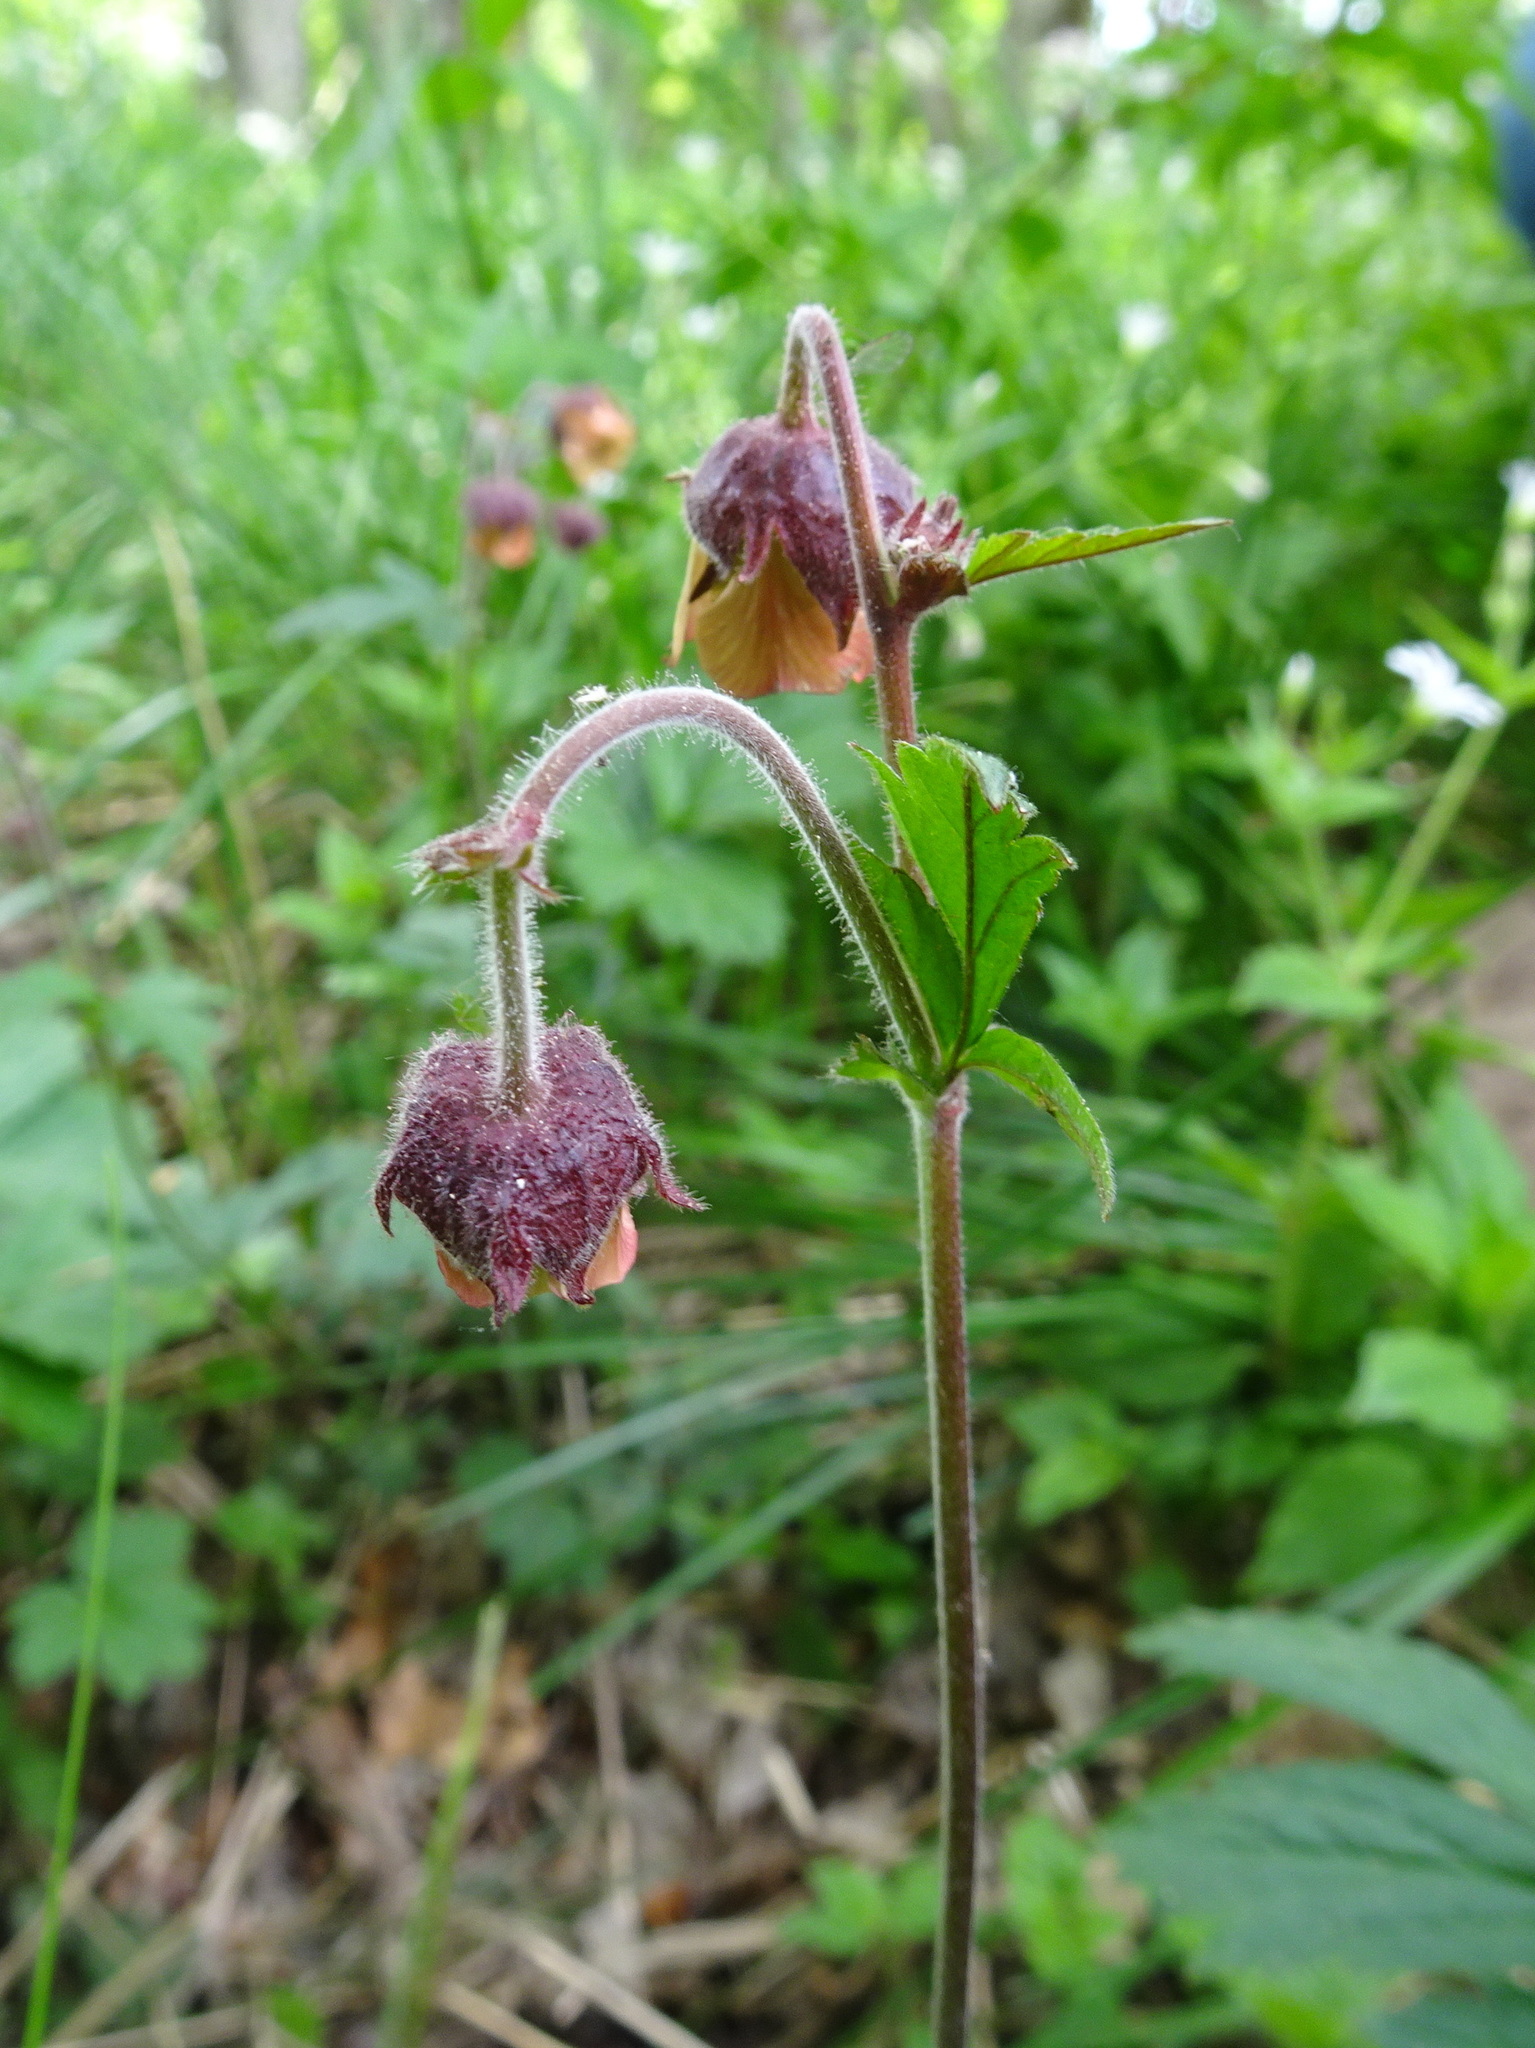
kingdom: Plantae
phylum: Tracheophyta
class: Magnoliopsida
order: Rosales
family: Rosaceae
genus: Geum
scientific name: Geum rivale
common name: Water avens
